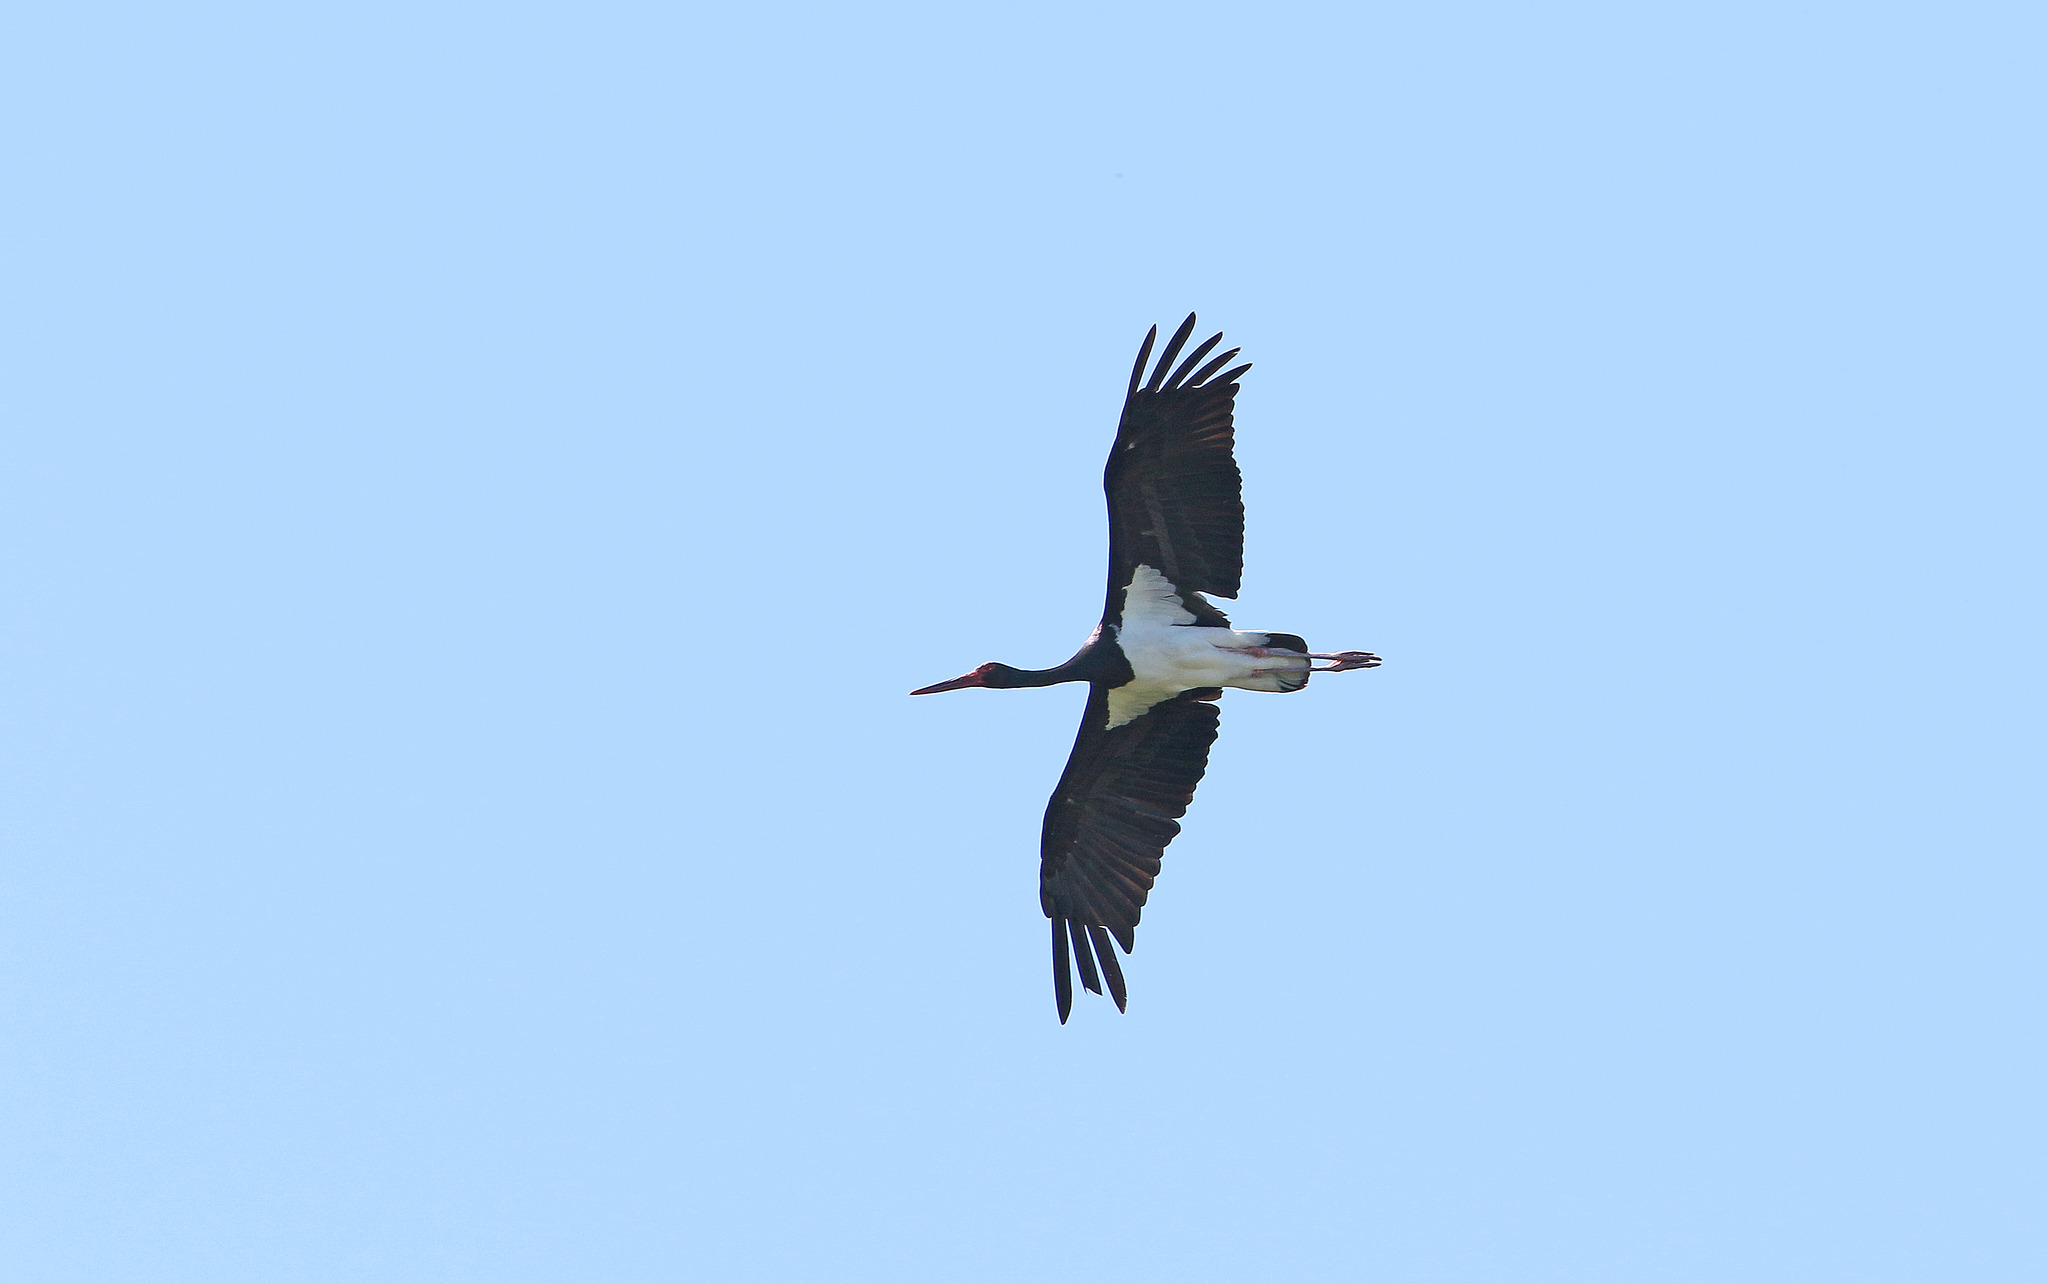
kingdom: Animalia
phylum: Chordata
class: Aves
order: Ciconiiformes
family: Ciconiidae
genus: Ciconia
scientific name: Ciconia nigra
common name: Black stork
